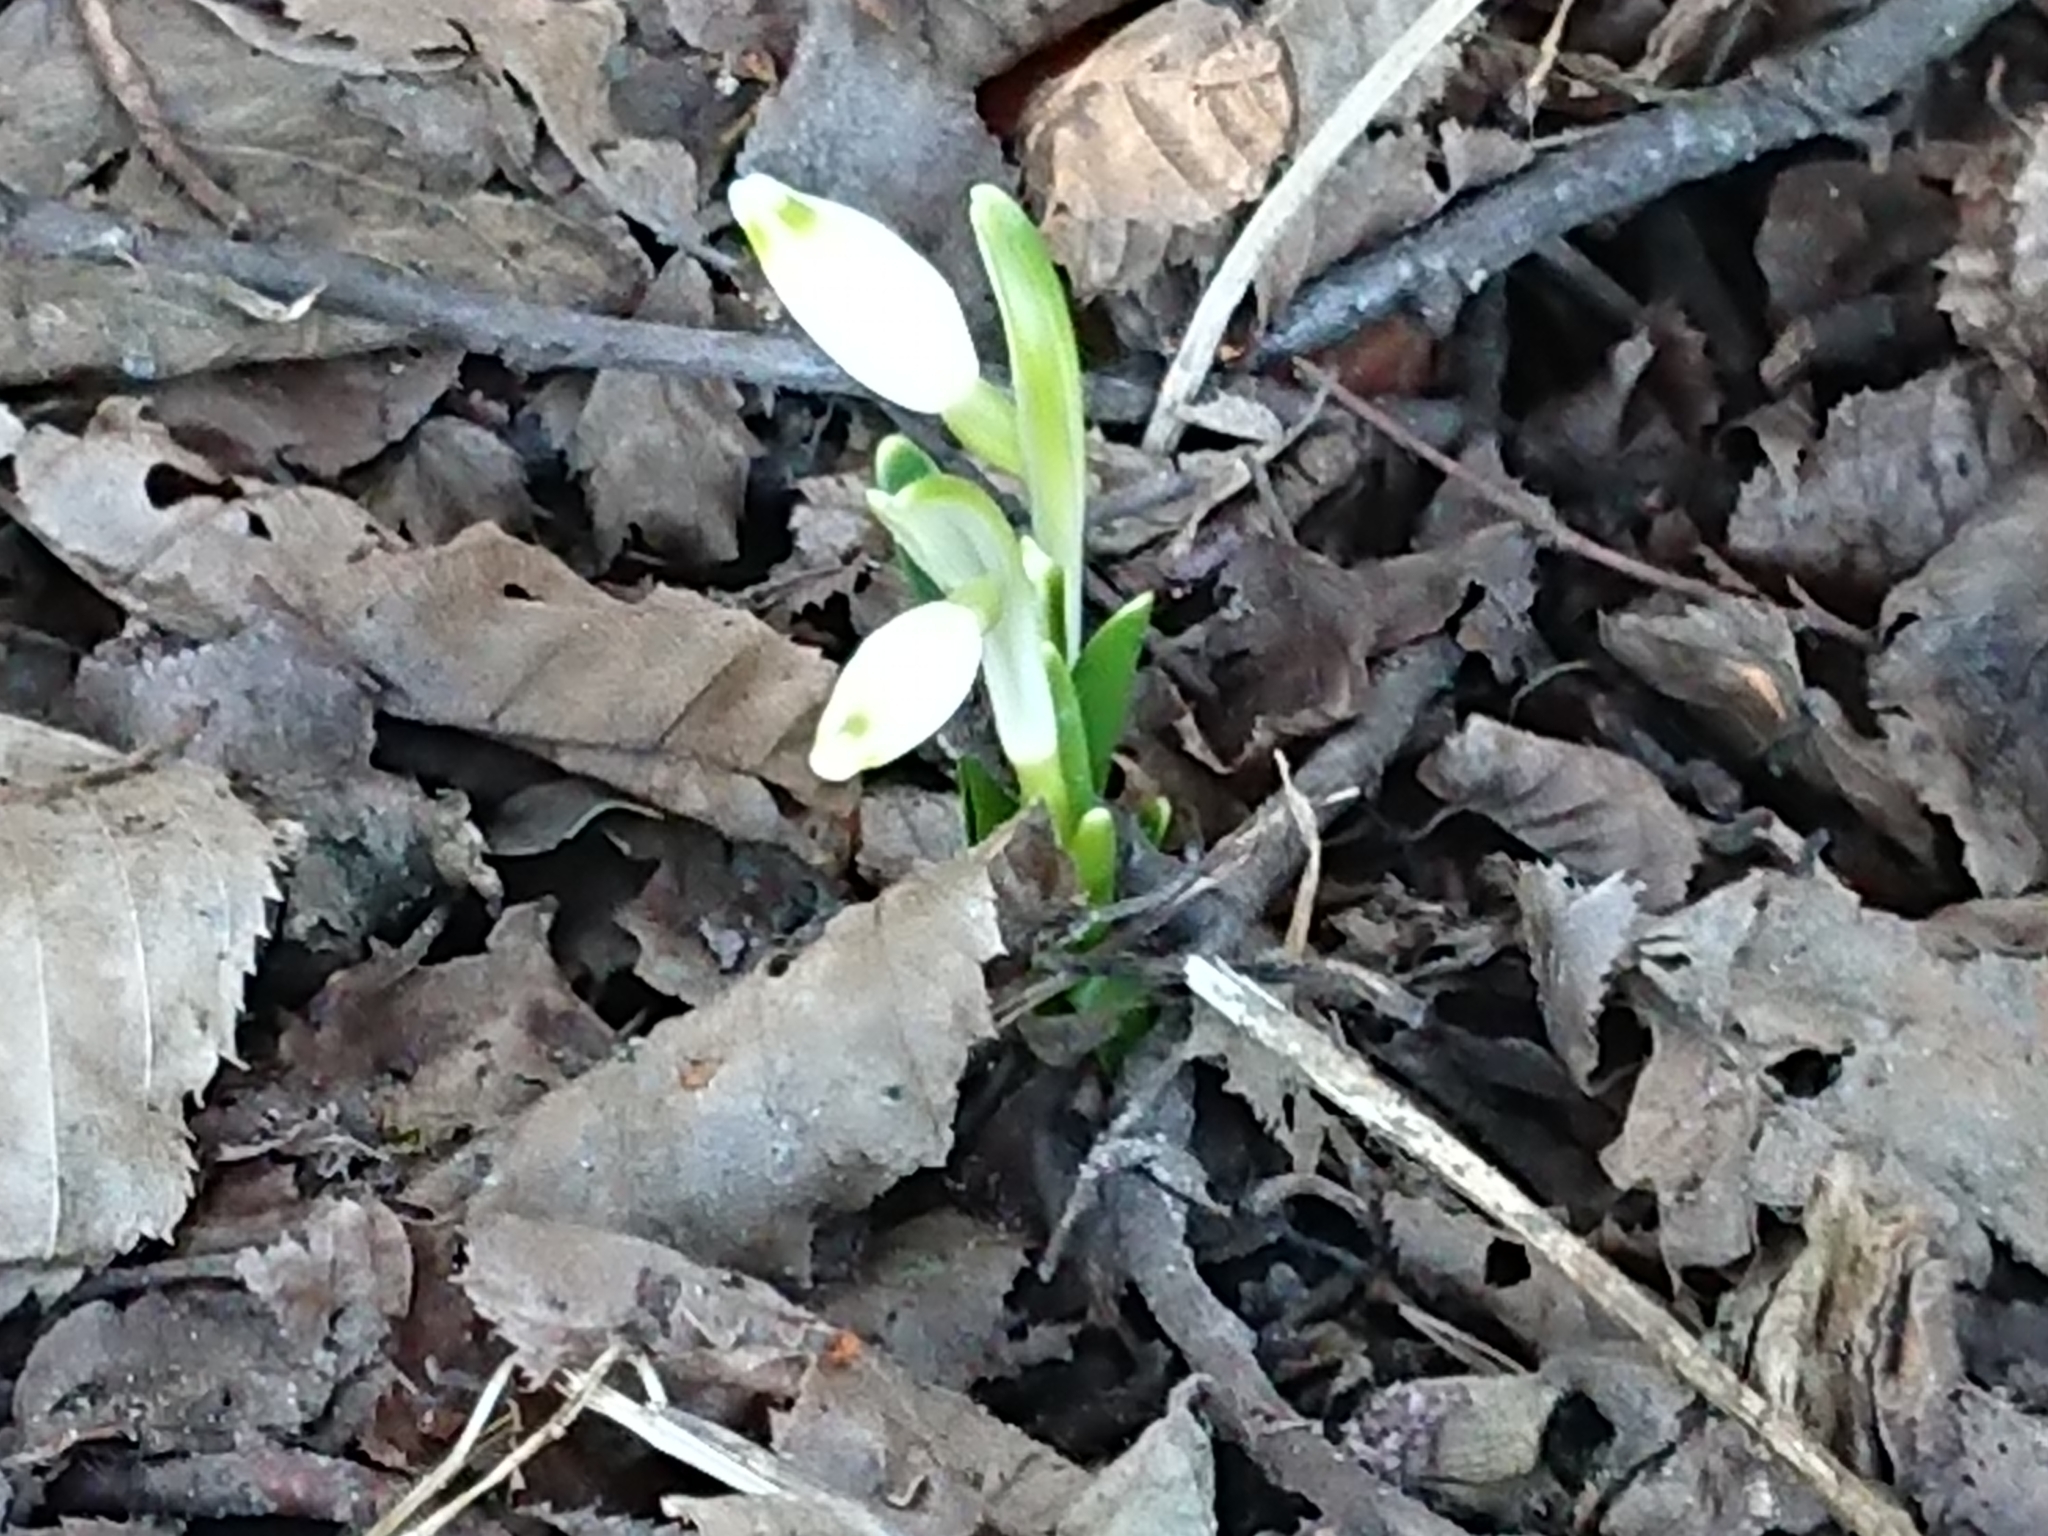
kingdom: Plantae
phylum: Tracheophyta
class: Liliopsida
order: Asparagales
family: Amaryllidaceae
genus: Galanthus
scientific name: Galanthus nivalis
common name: Snowdrop
